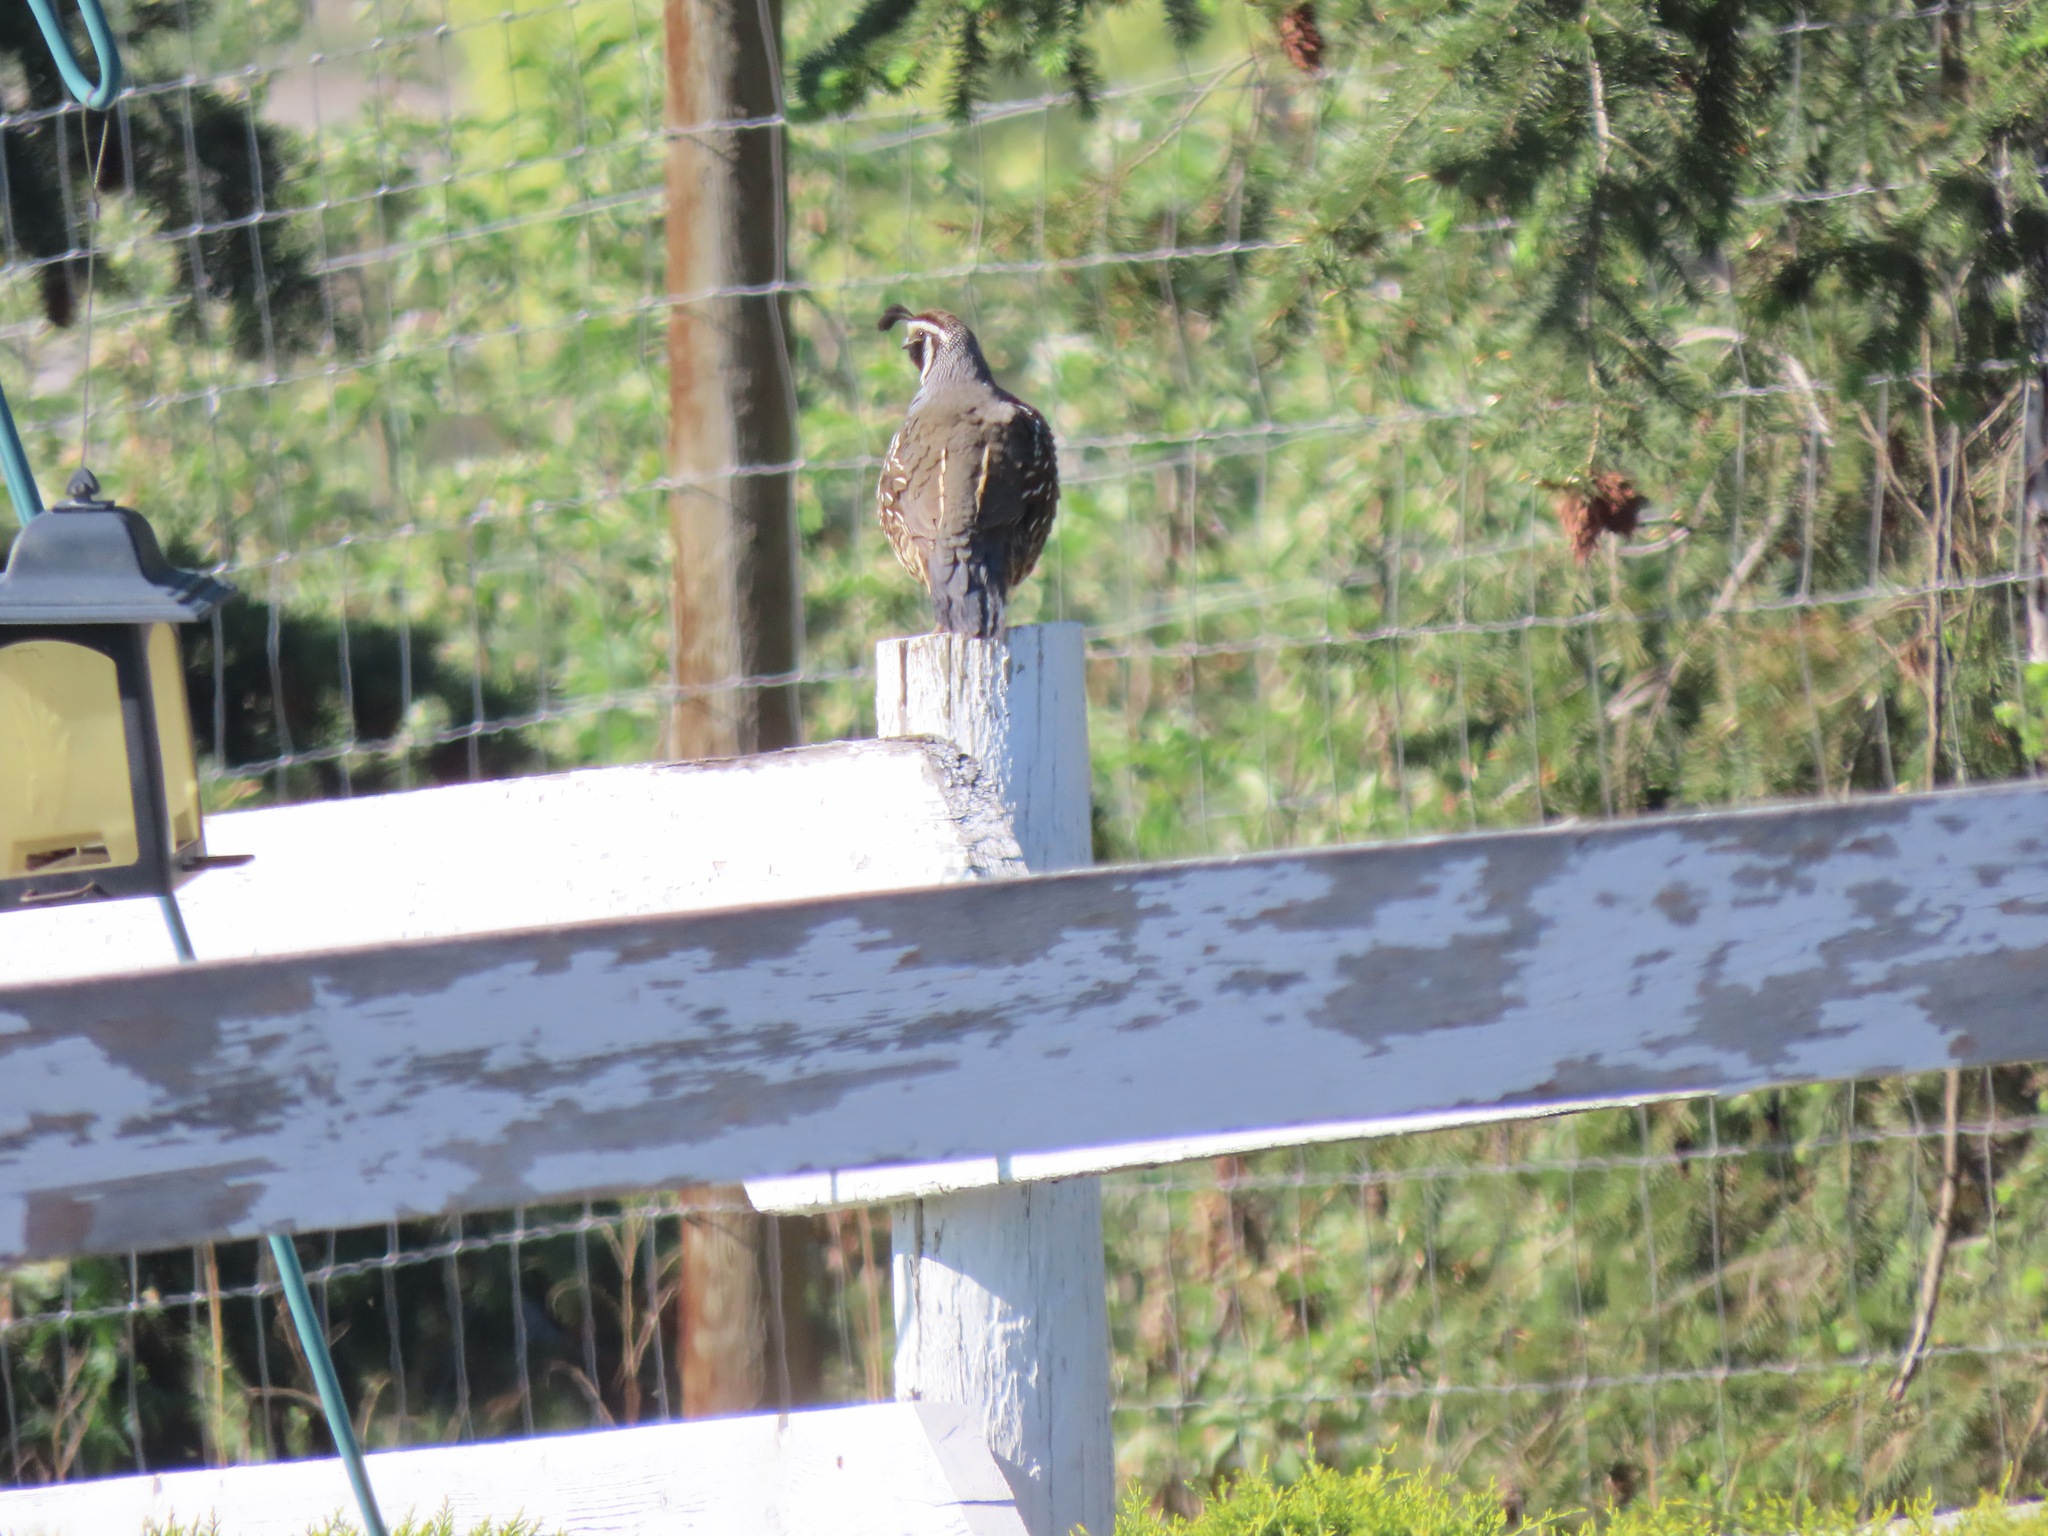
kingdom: Animalia
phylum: Chordata
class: Aves
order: Galliformes
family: Odontophoridae
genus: Callipepla
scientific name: Callipepla californica
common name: California quail
